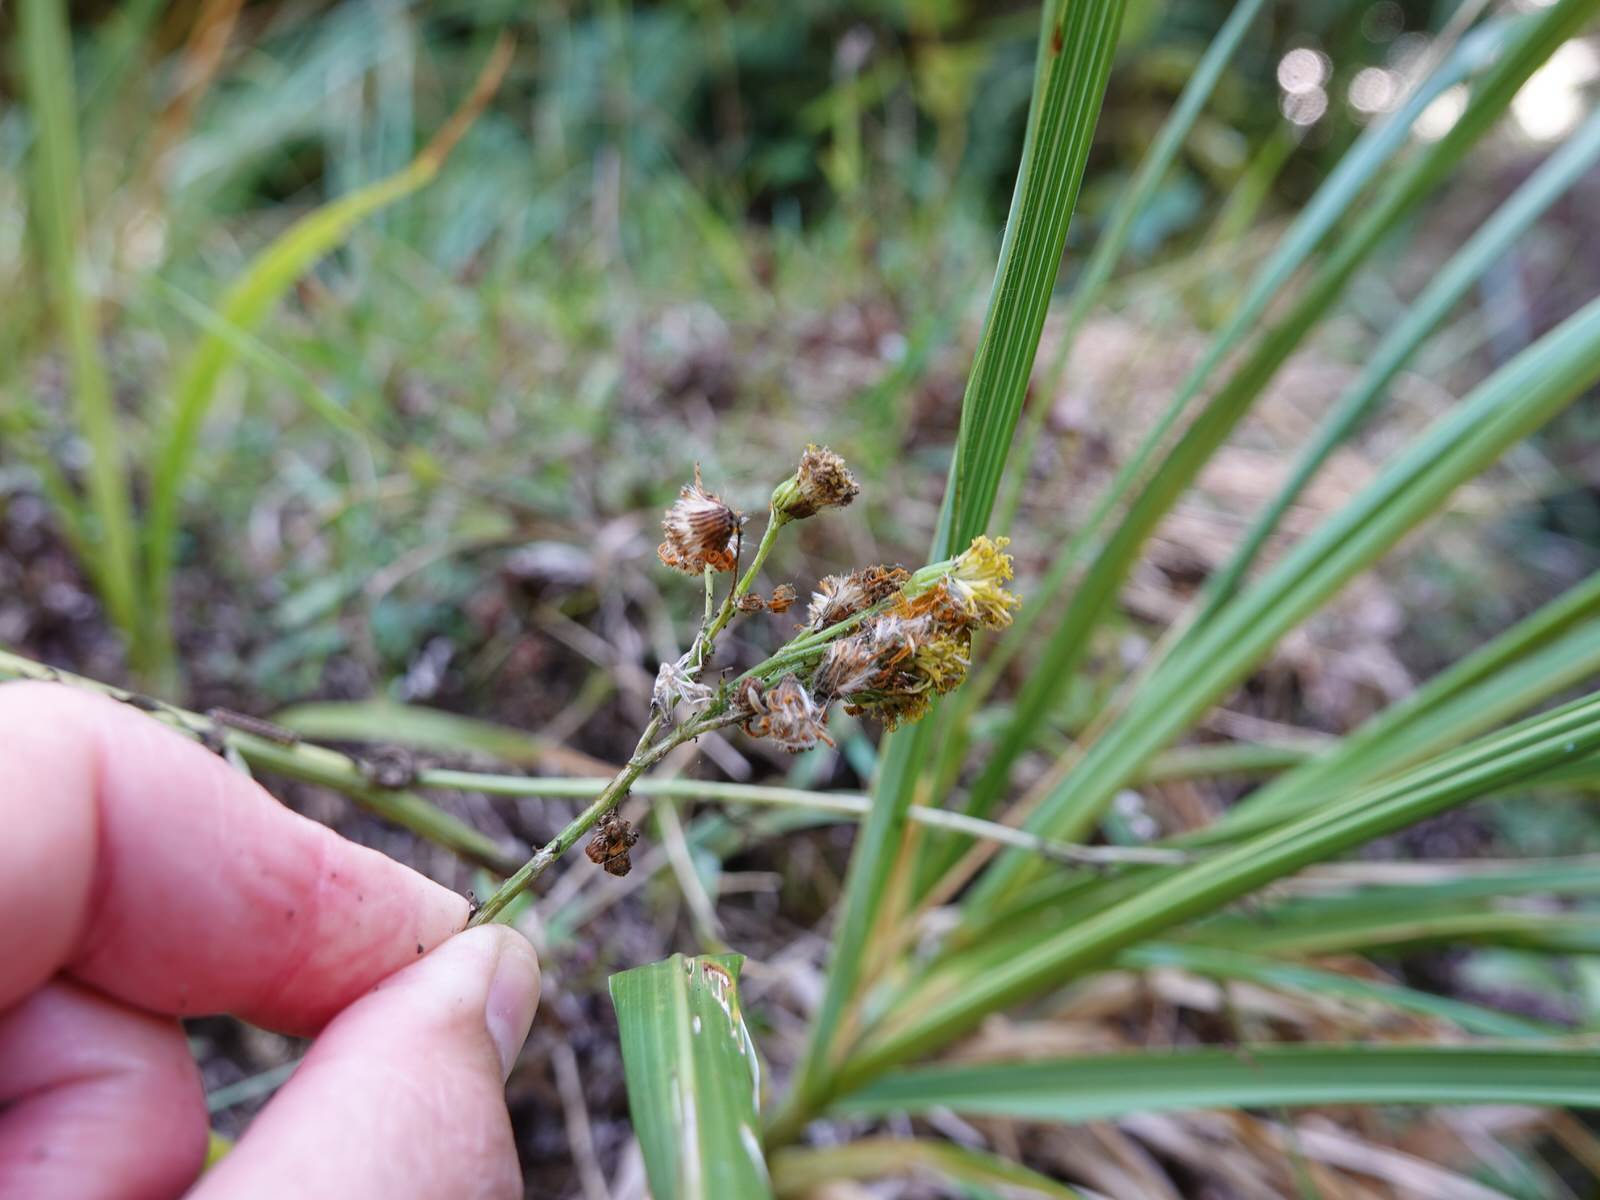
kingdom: Plantae
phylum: Tracheophyta
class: Magnoliopsida
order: Asterales
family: Asteraceae
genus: Jacobaea
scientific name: Jacobaea vulgaris
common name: Stinking willie
